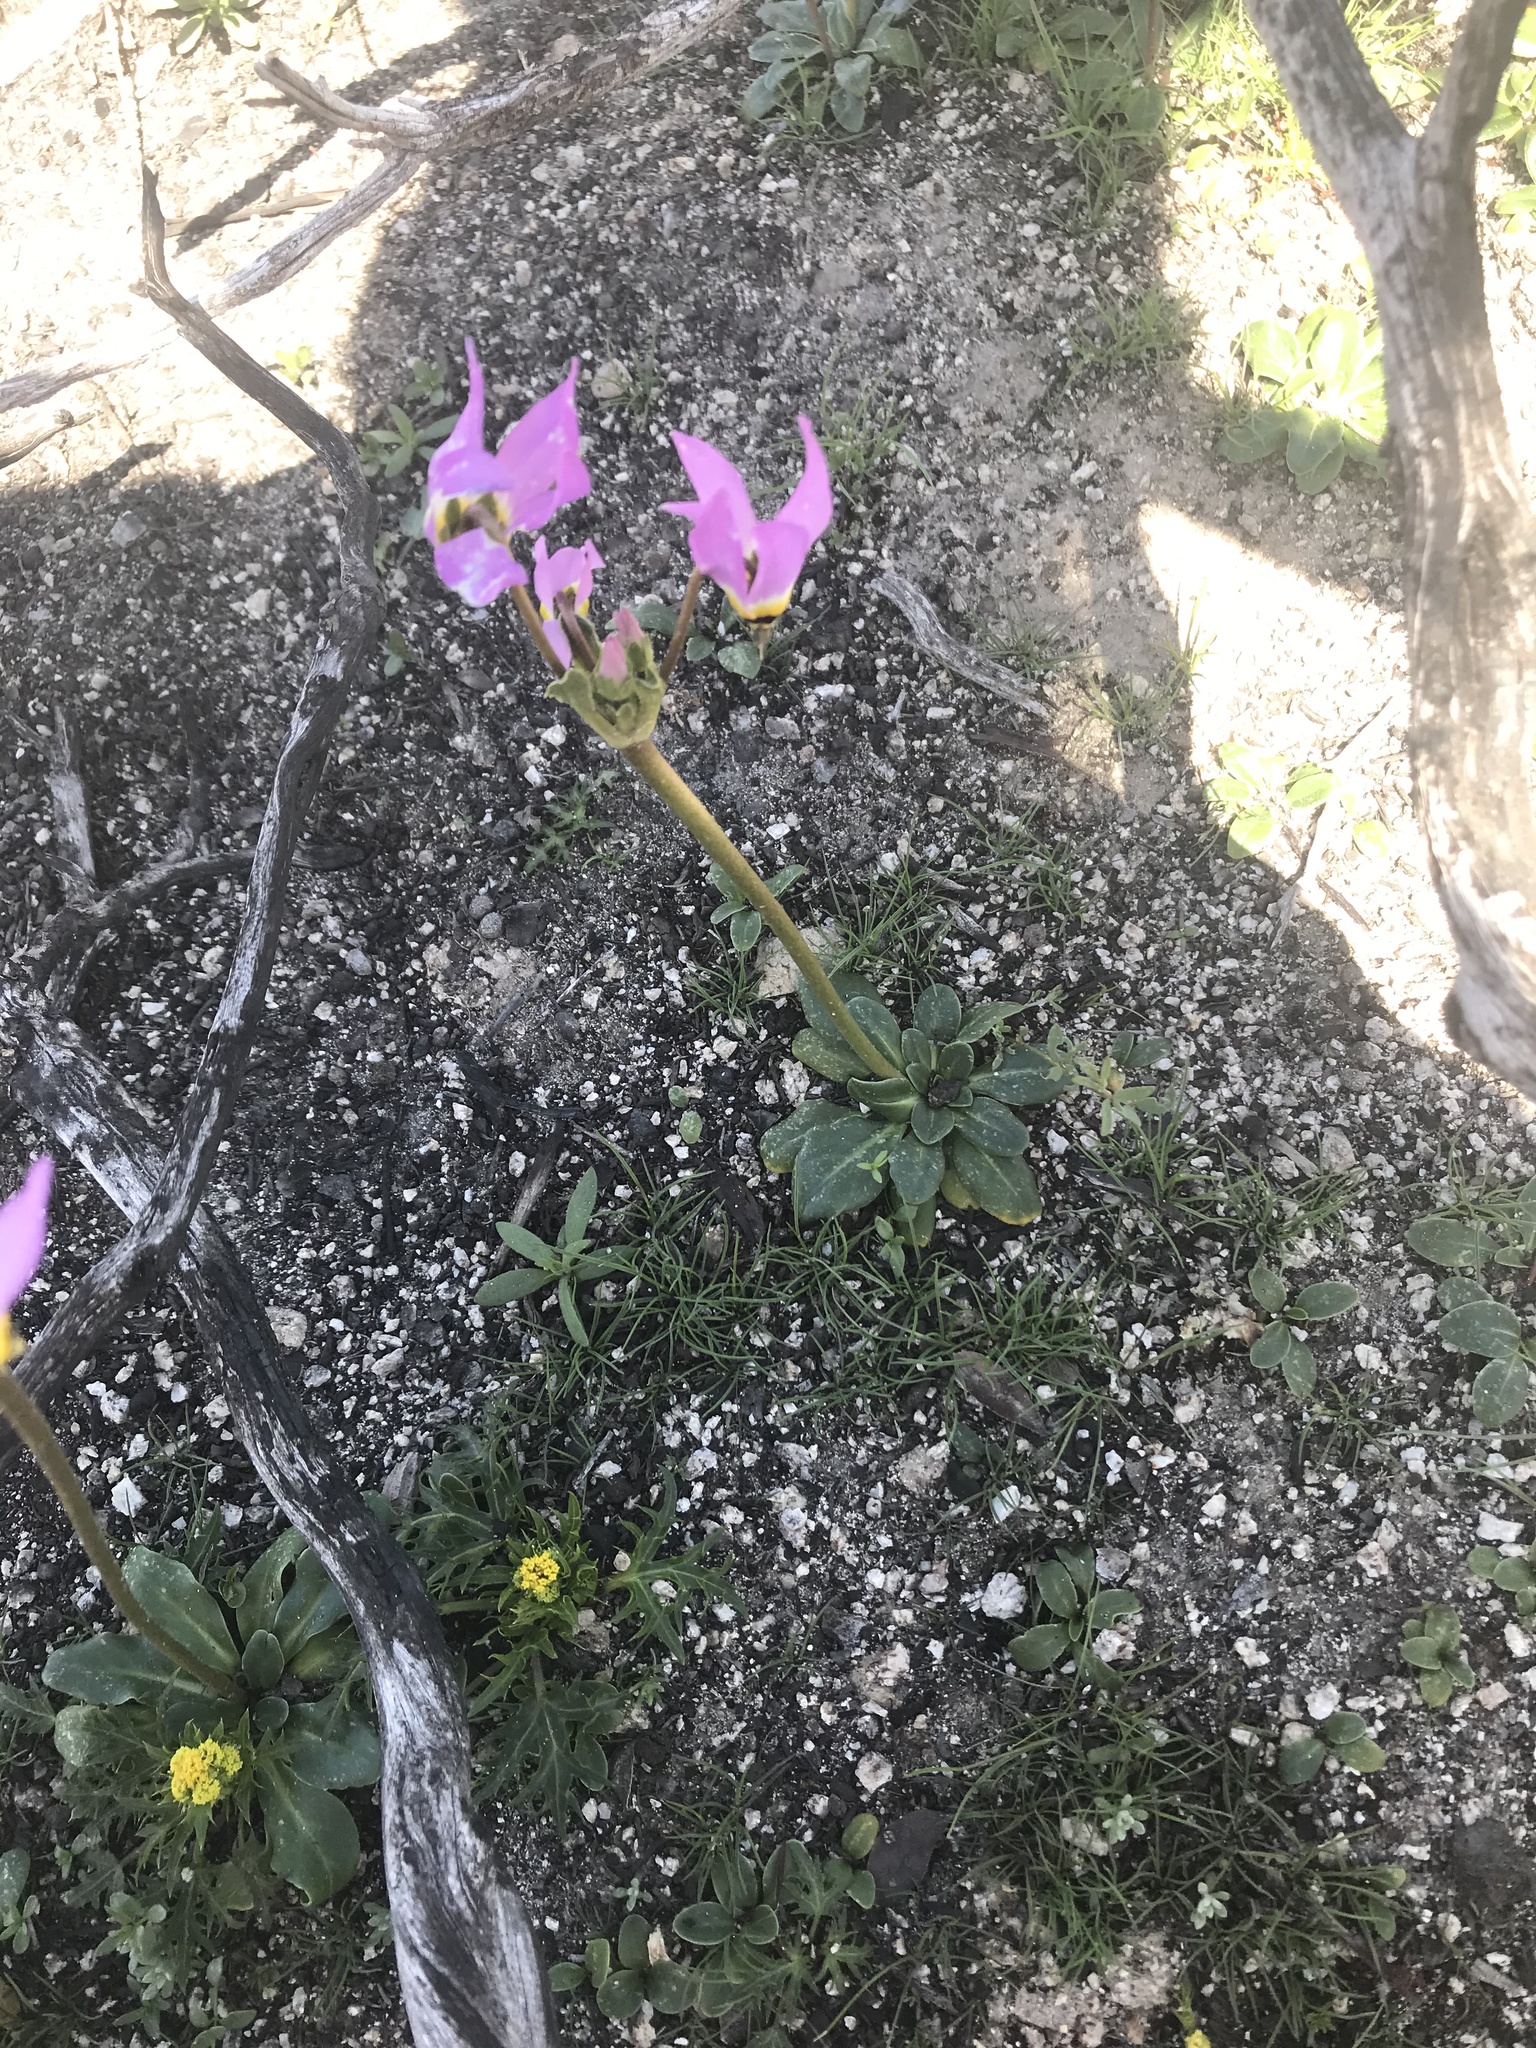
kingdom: Plantae
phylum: Tracheophyta
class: Magnoliopsida
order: Ericales
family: Primulaceae
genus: Dodecatheon
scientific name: Dodecatheon clevelandii
